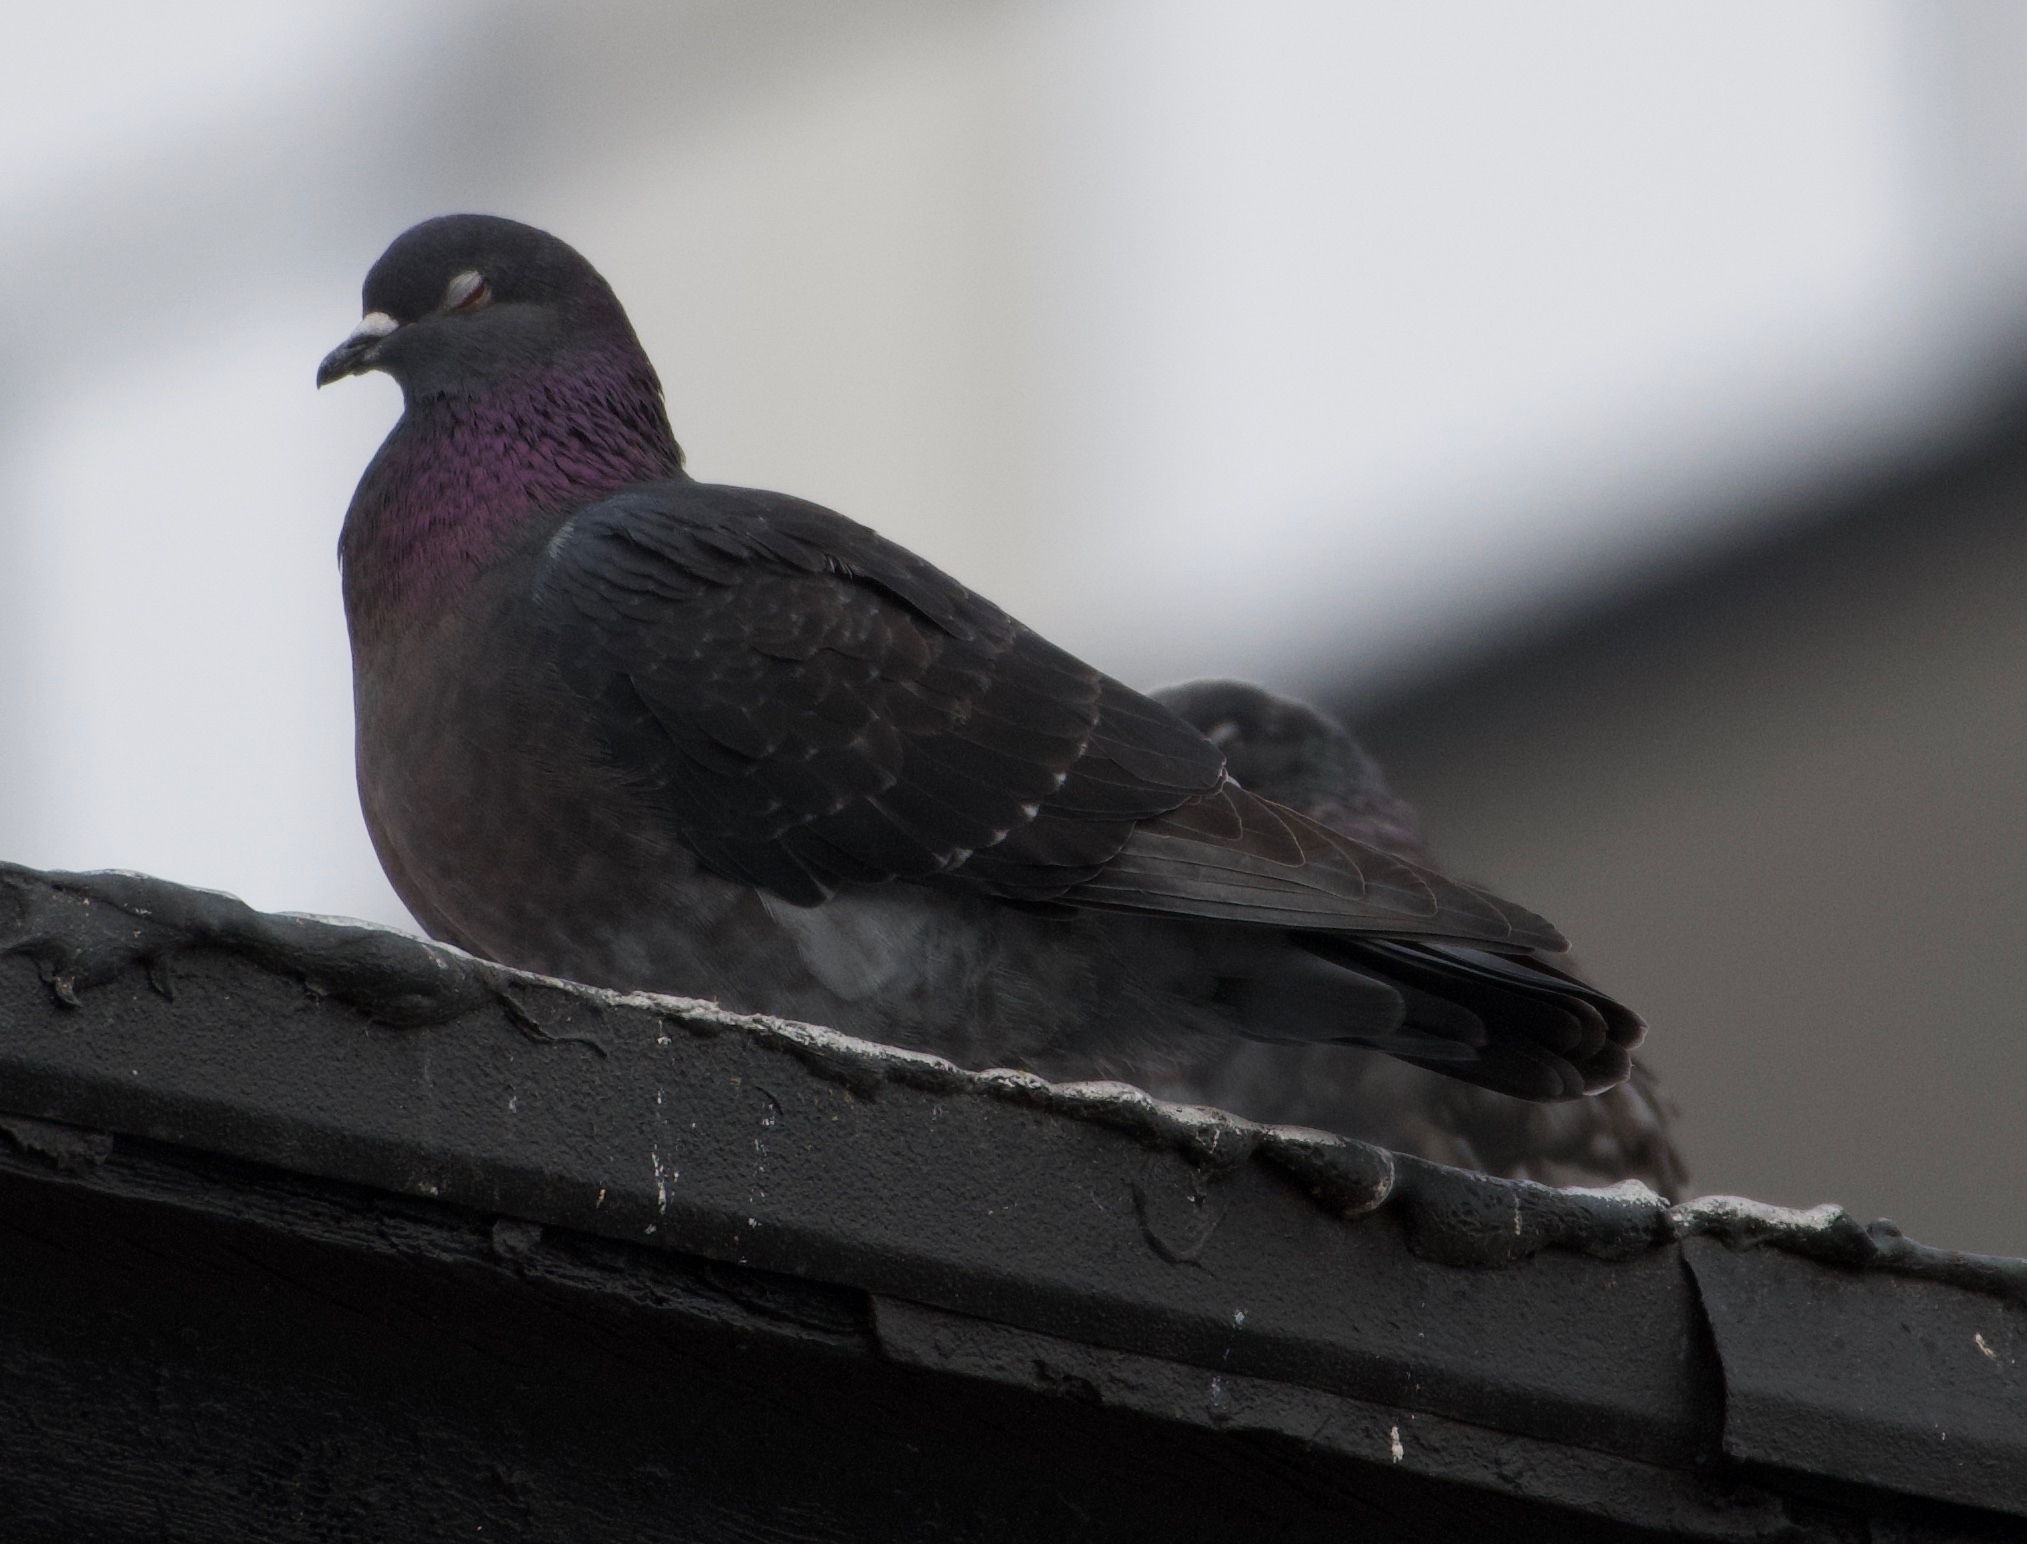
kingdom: Animalia
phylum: Chordata
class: Aves
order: Columbiformes
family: Columbidae
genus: Columba
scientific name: Columba livia
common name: Rock pigeon
